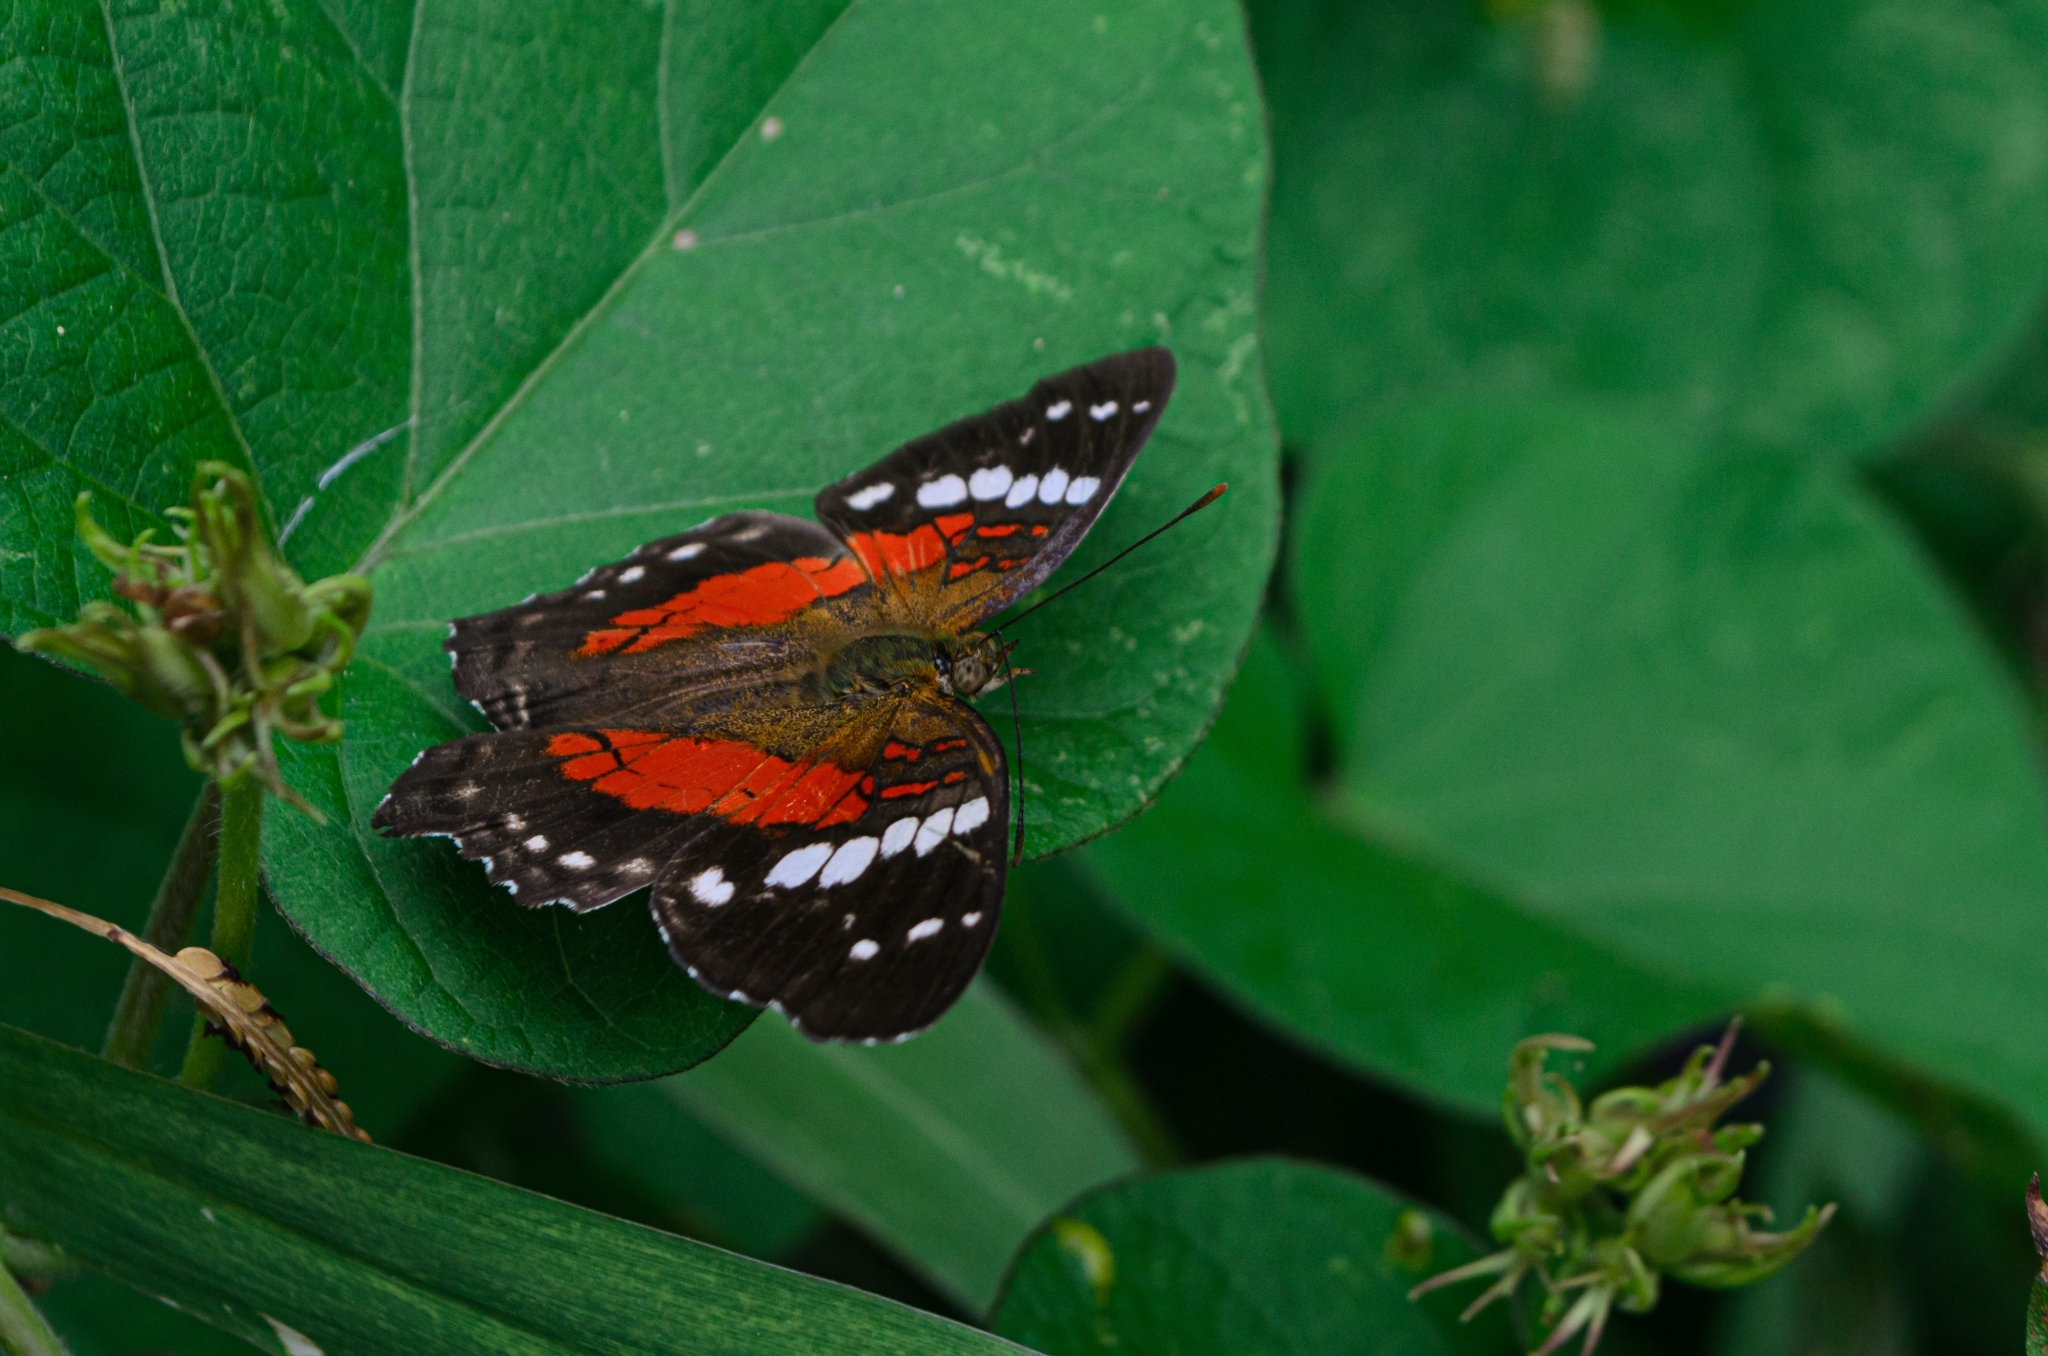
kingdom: Animalia
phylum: Arthropoda
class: Insecta
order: Lepidoptera
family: Nymphalidae
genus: Anartia
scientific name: Anartia amathea
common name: Red peacock
